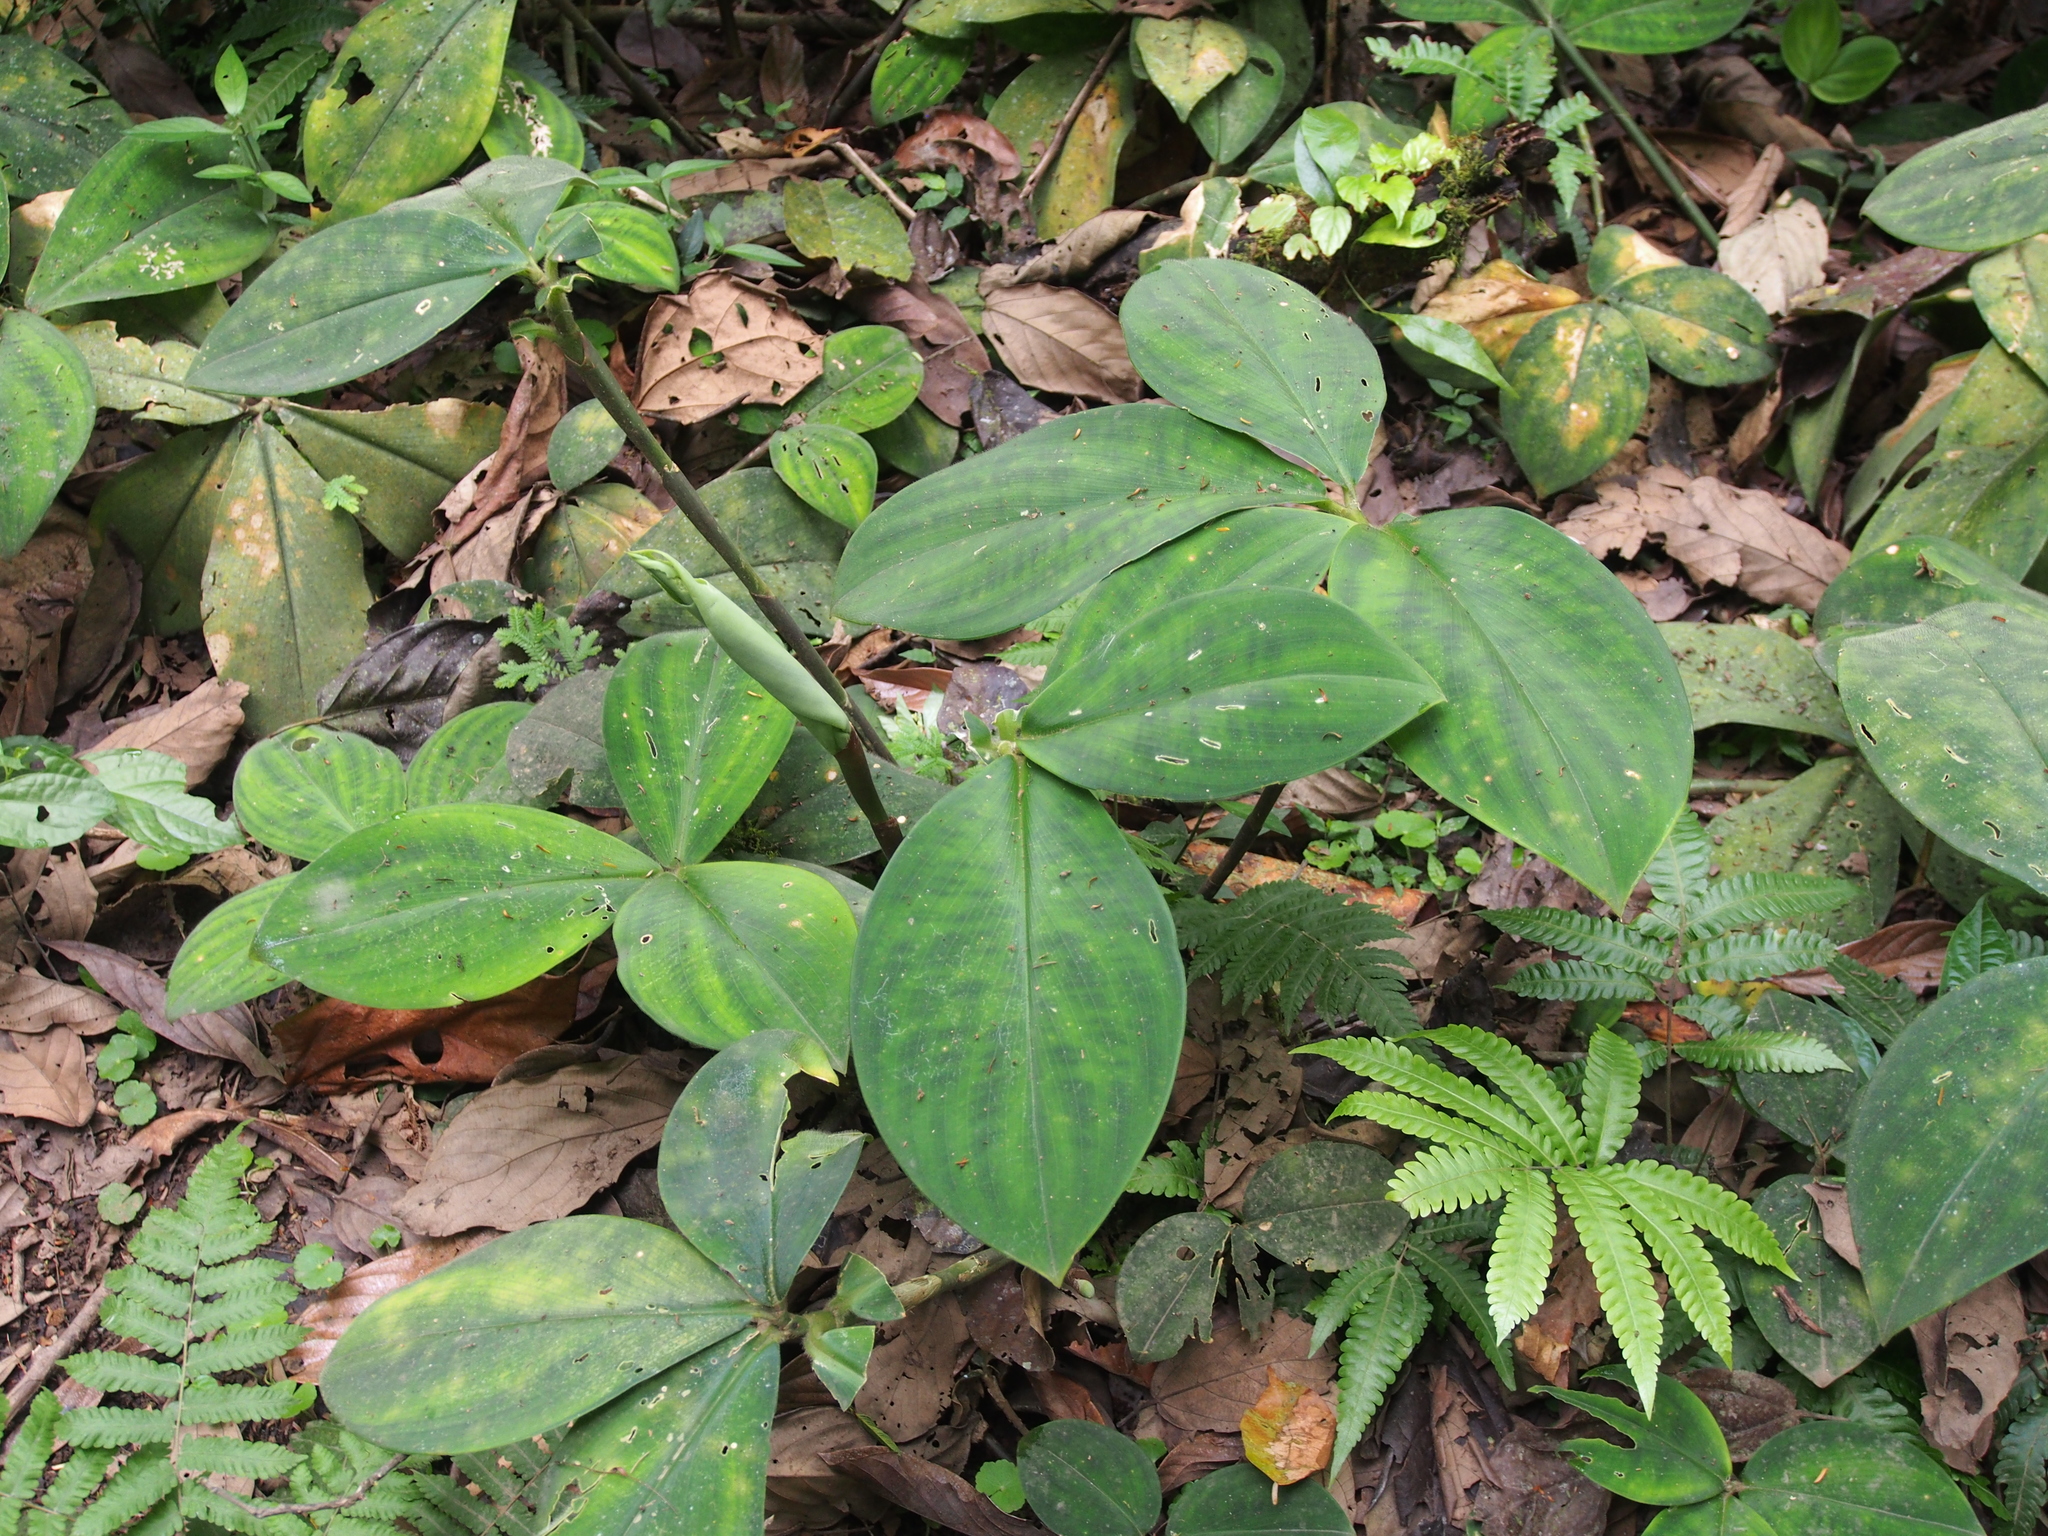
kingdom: Plantae
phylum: Tracheophyta
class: Liliopsida
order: Zingiberales
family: Costaceae
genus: Costus
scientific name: Costus elegans
